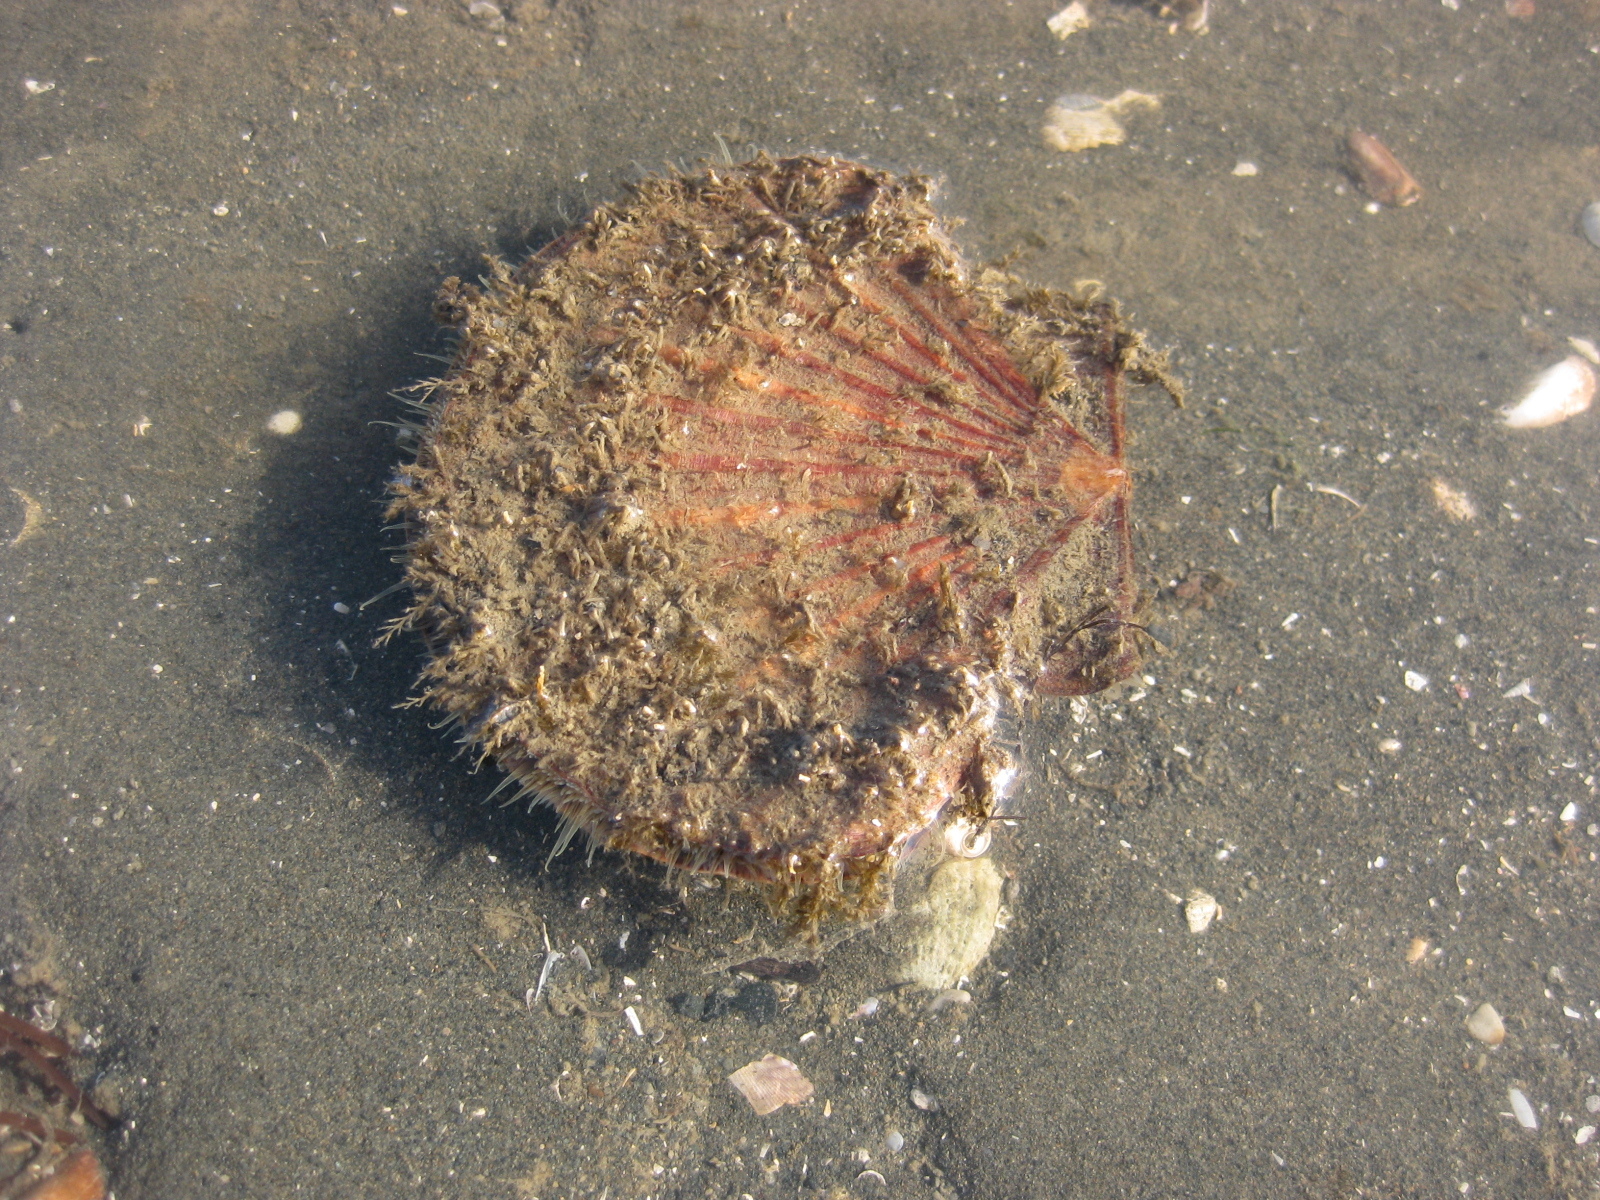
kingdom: Animalia
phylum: Mollusca
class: Bivalvia
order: Pectinida
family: Pectinidae
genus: Pecten
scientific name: Pecten novaezelandiae
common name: New zealand scallop
